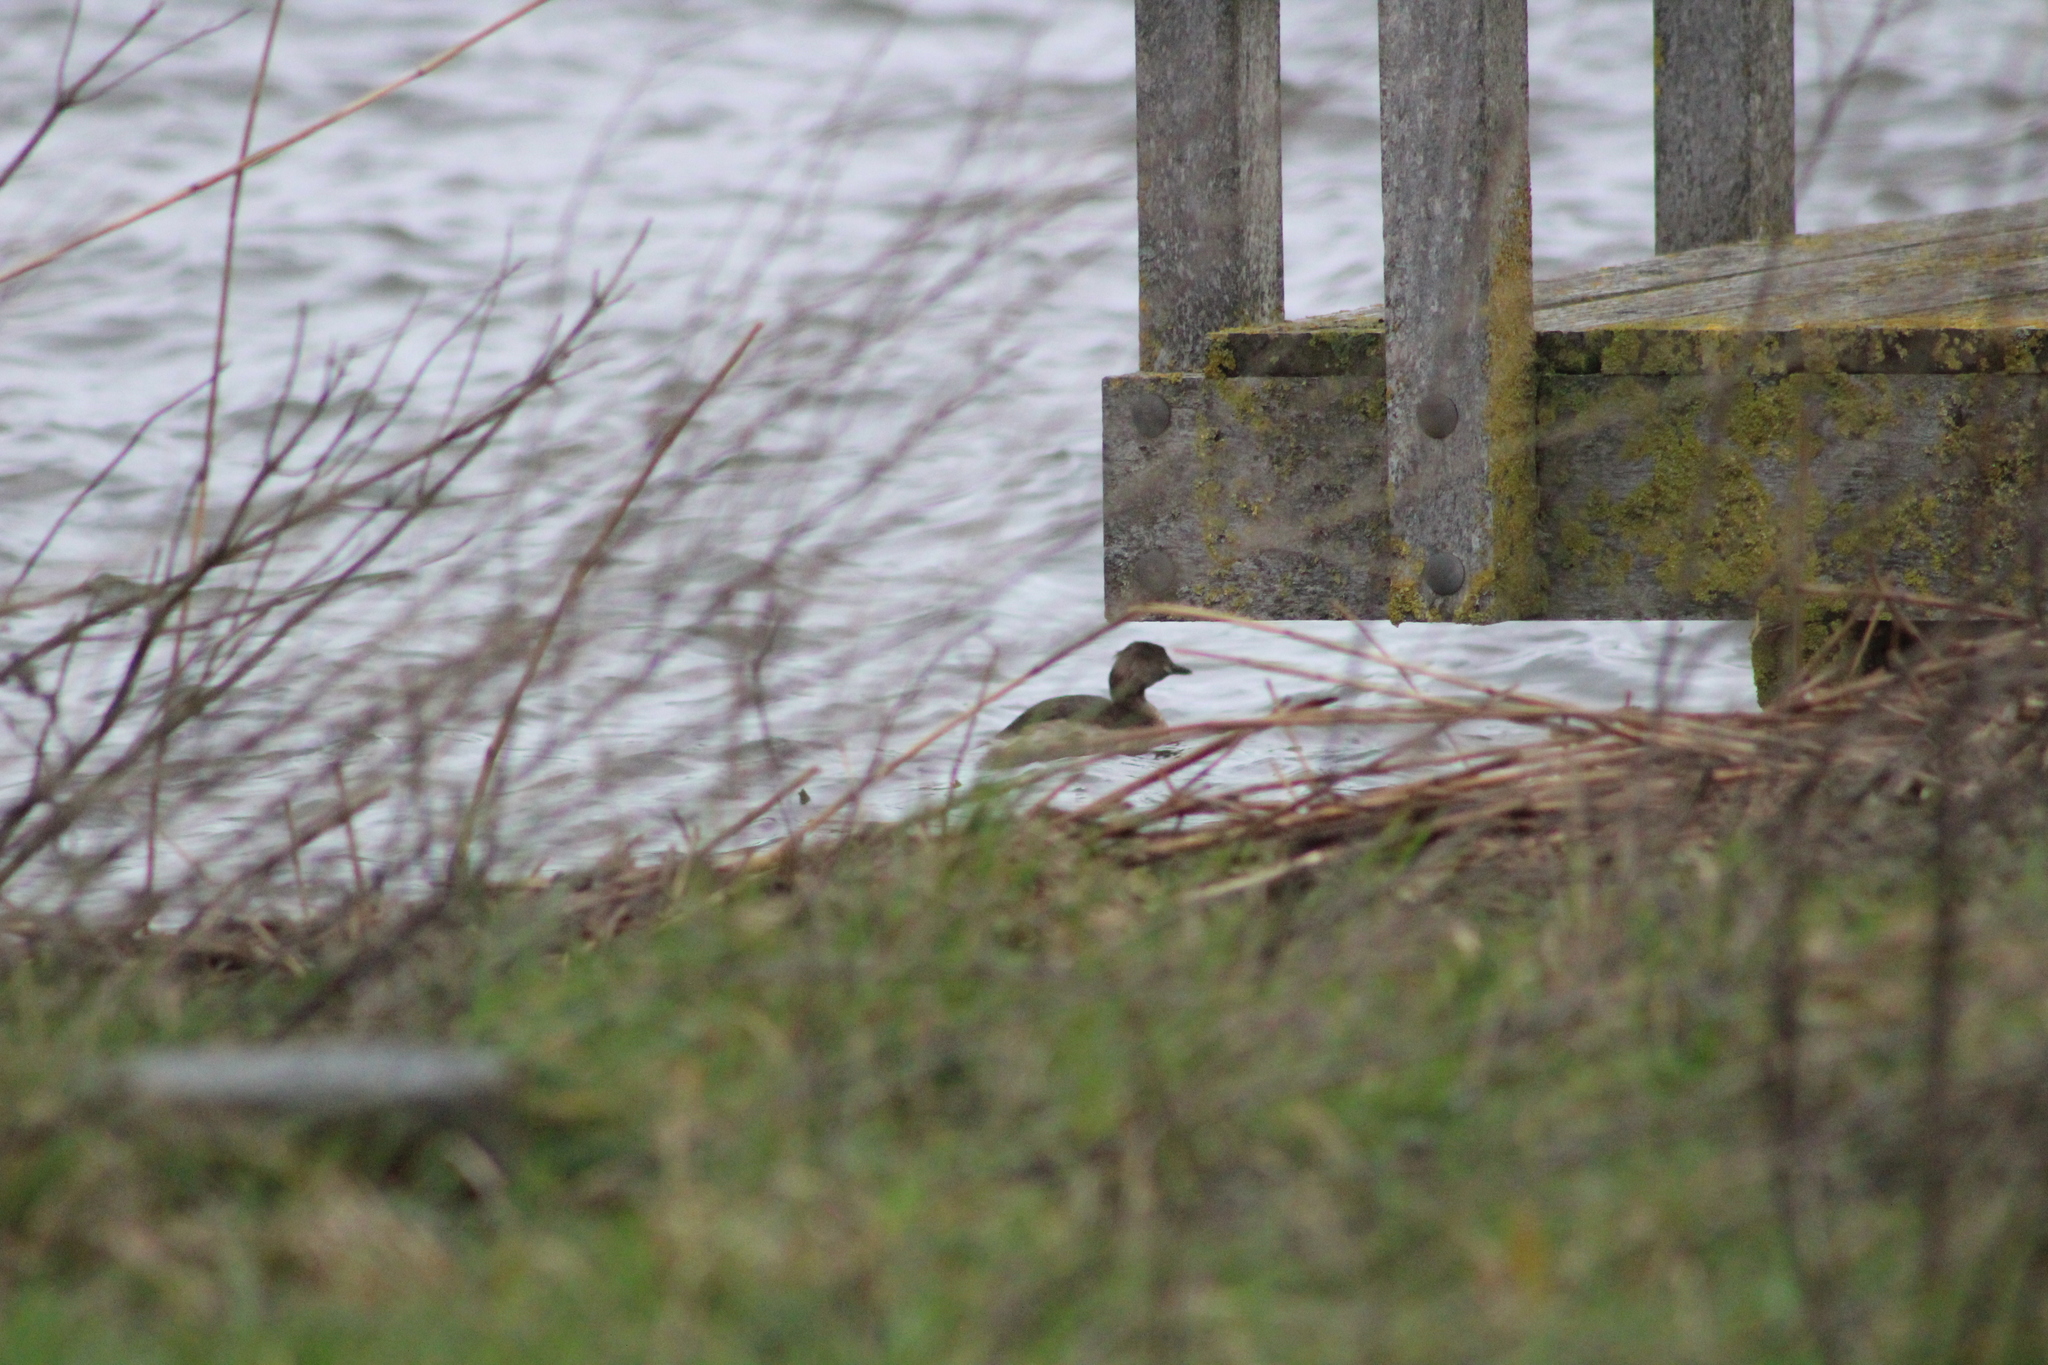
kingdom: Animalia
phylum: Chordata
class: Aves
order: Podicipediformes
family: Podicipedidae
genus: Tachybaptus
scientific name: Tachybaptus ruficollis
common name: Little grebe
